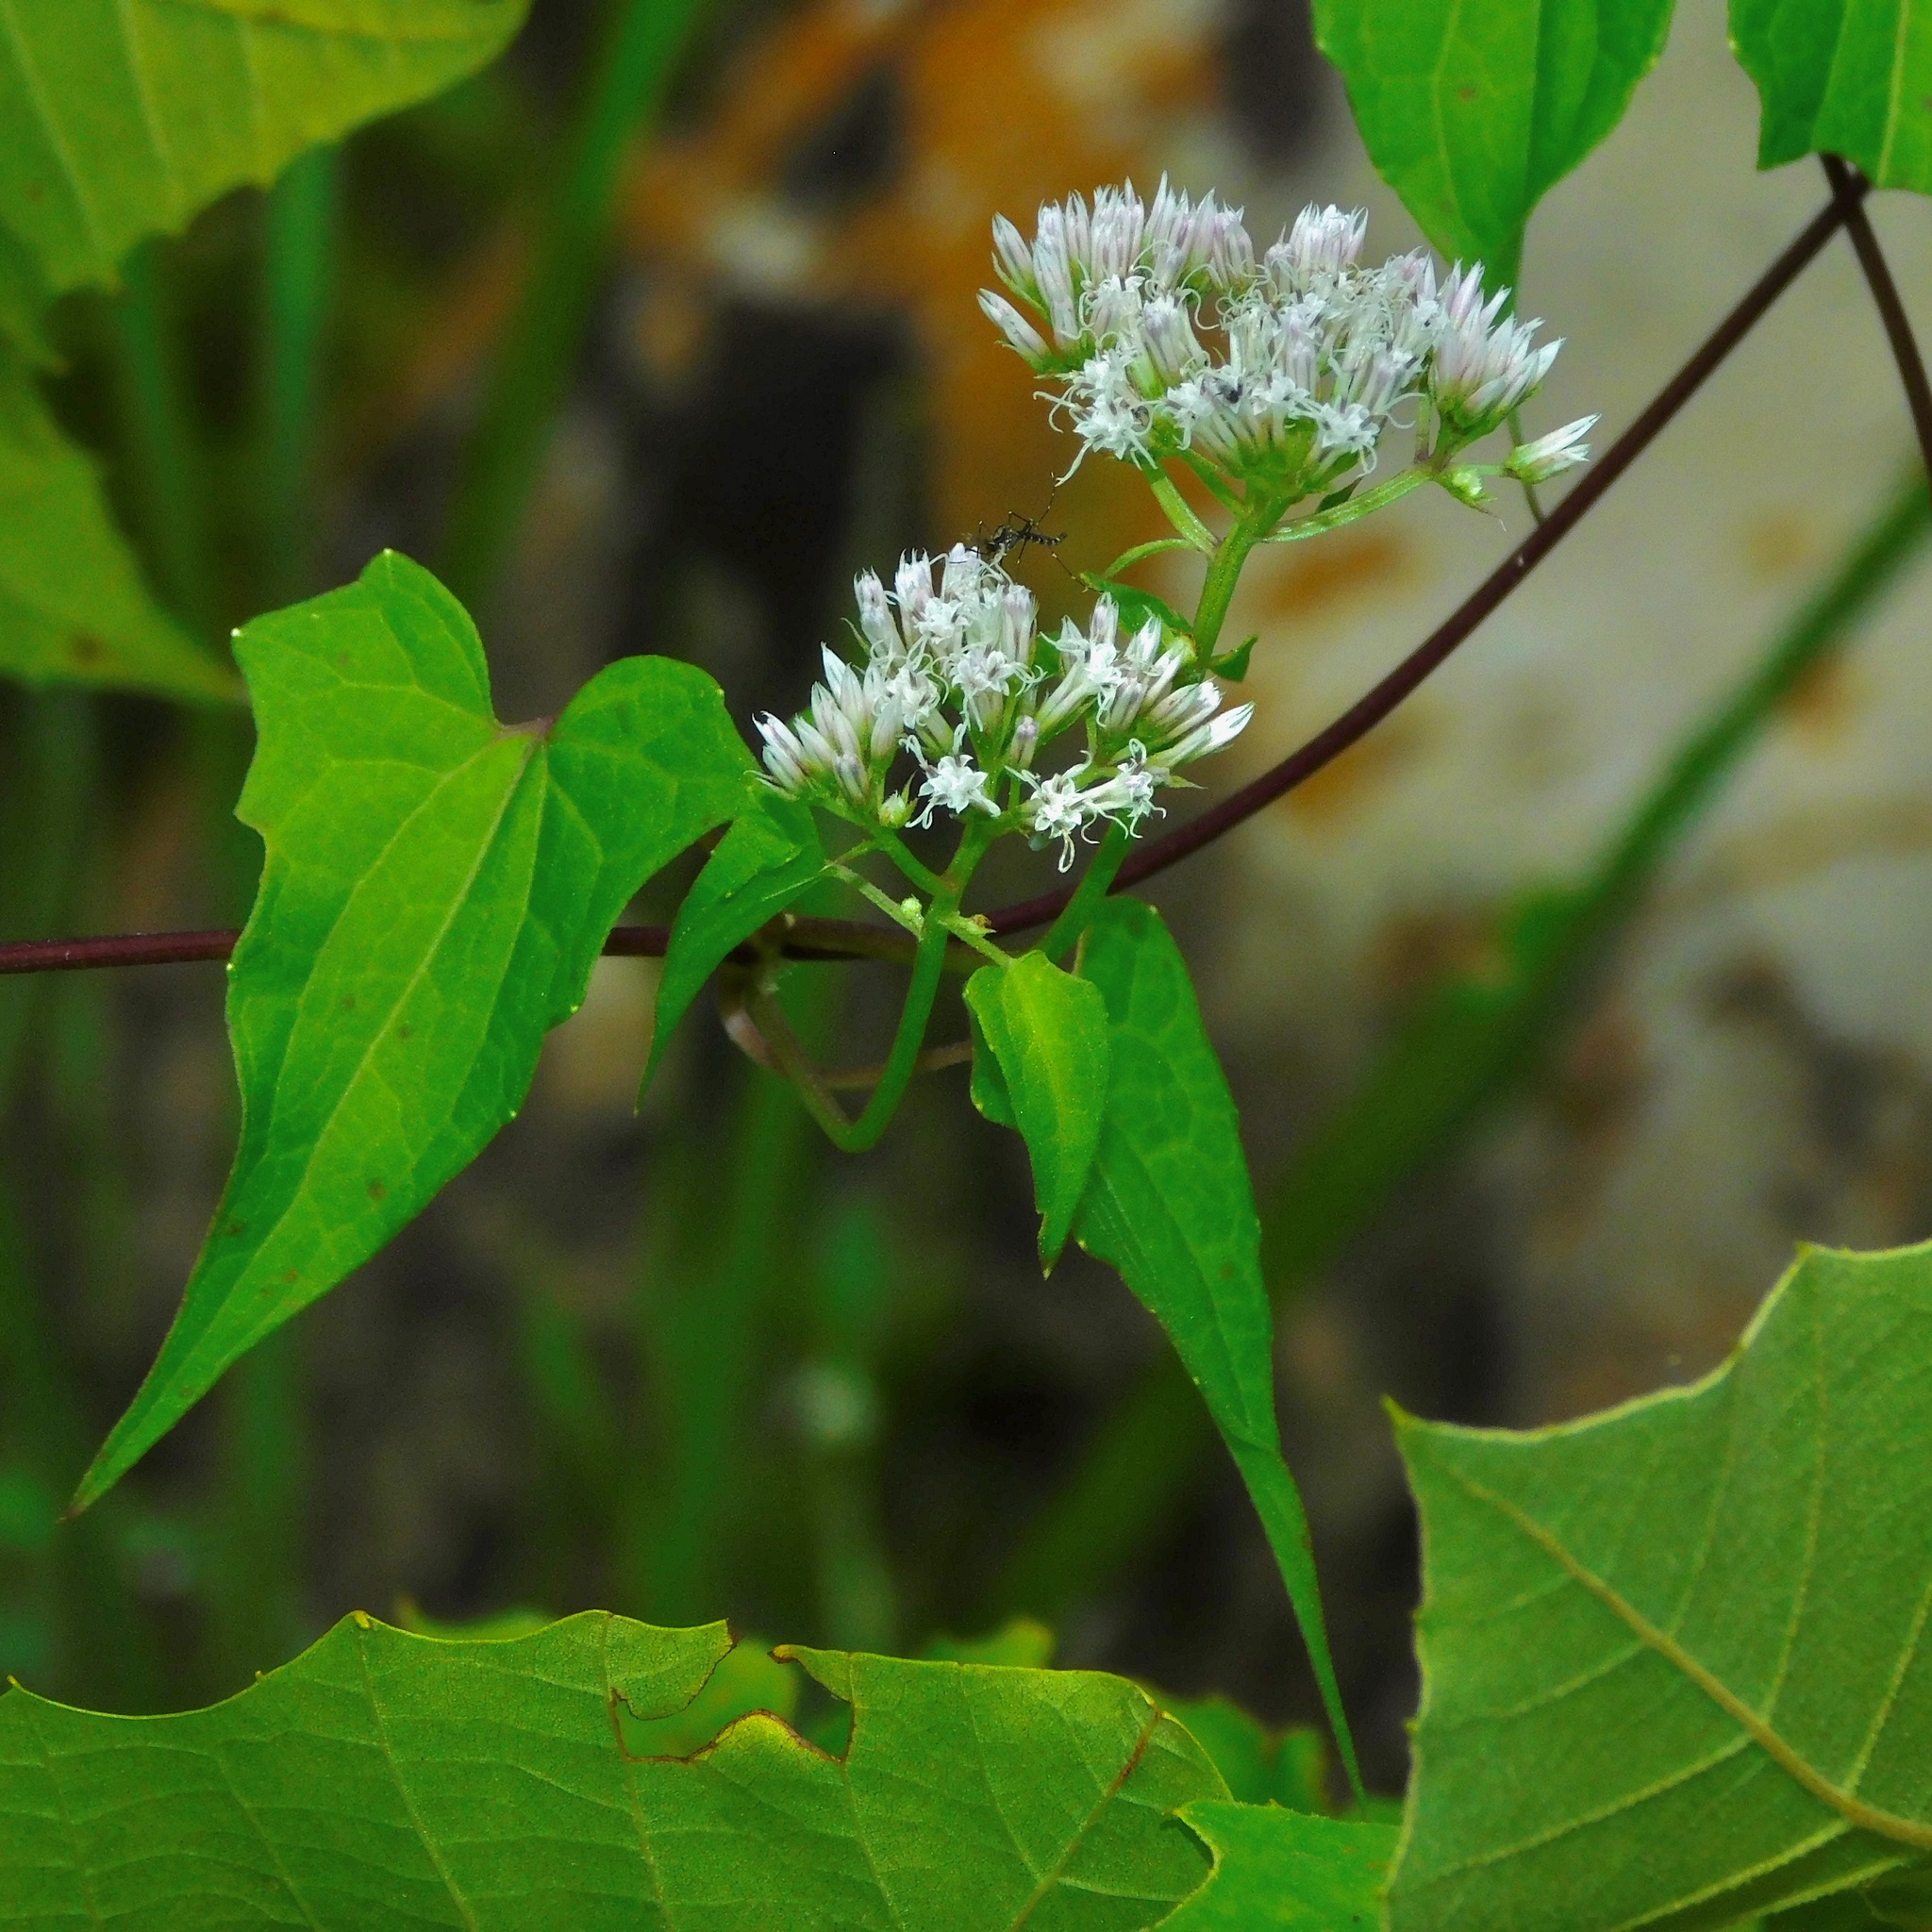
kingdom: Plantae
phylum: Tracheophyta
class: Magnoliopsida
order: Asterales
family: Asteraceae
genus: Mikania
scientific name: Mikania scandens
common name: Climbing hempvine
